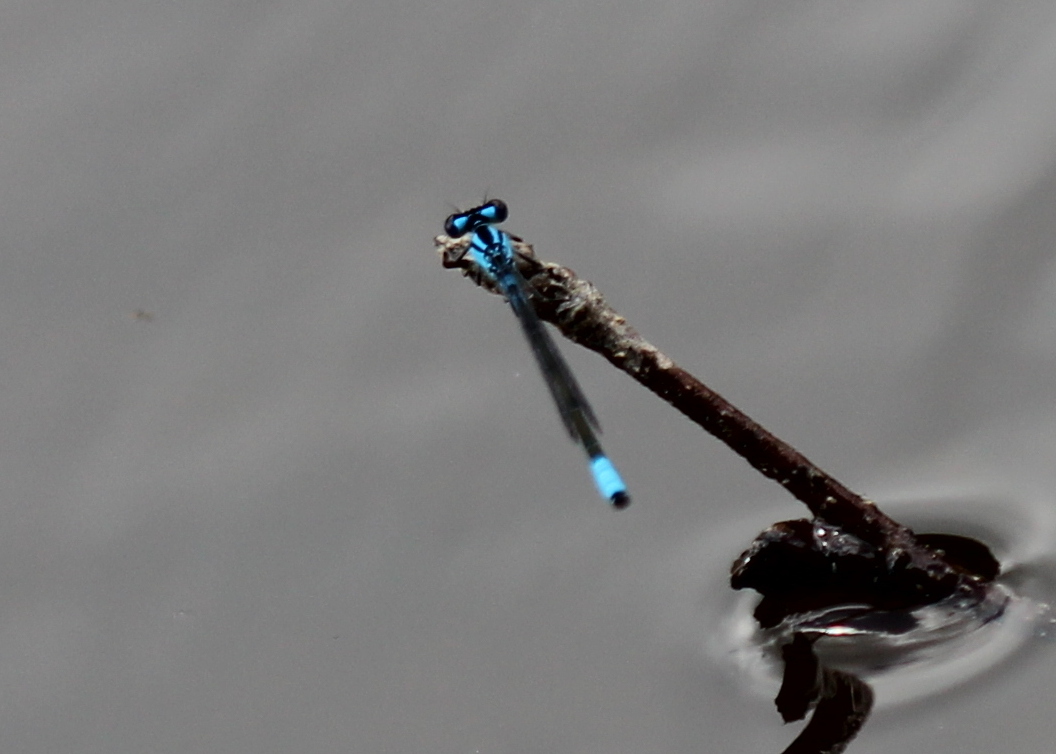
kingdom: Animalia
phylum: Arthropoda
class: Insecta
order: Odonata
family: Coenagrionidae
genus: Enallagma
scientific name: Enallagma geminatum
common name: Skimming bluet
